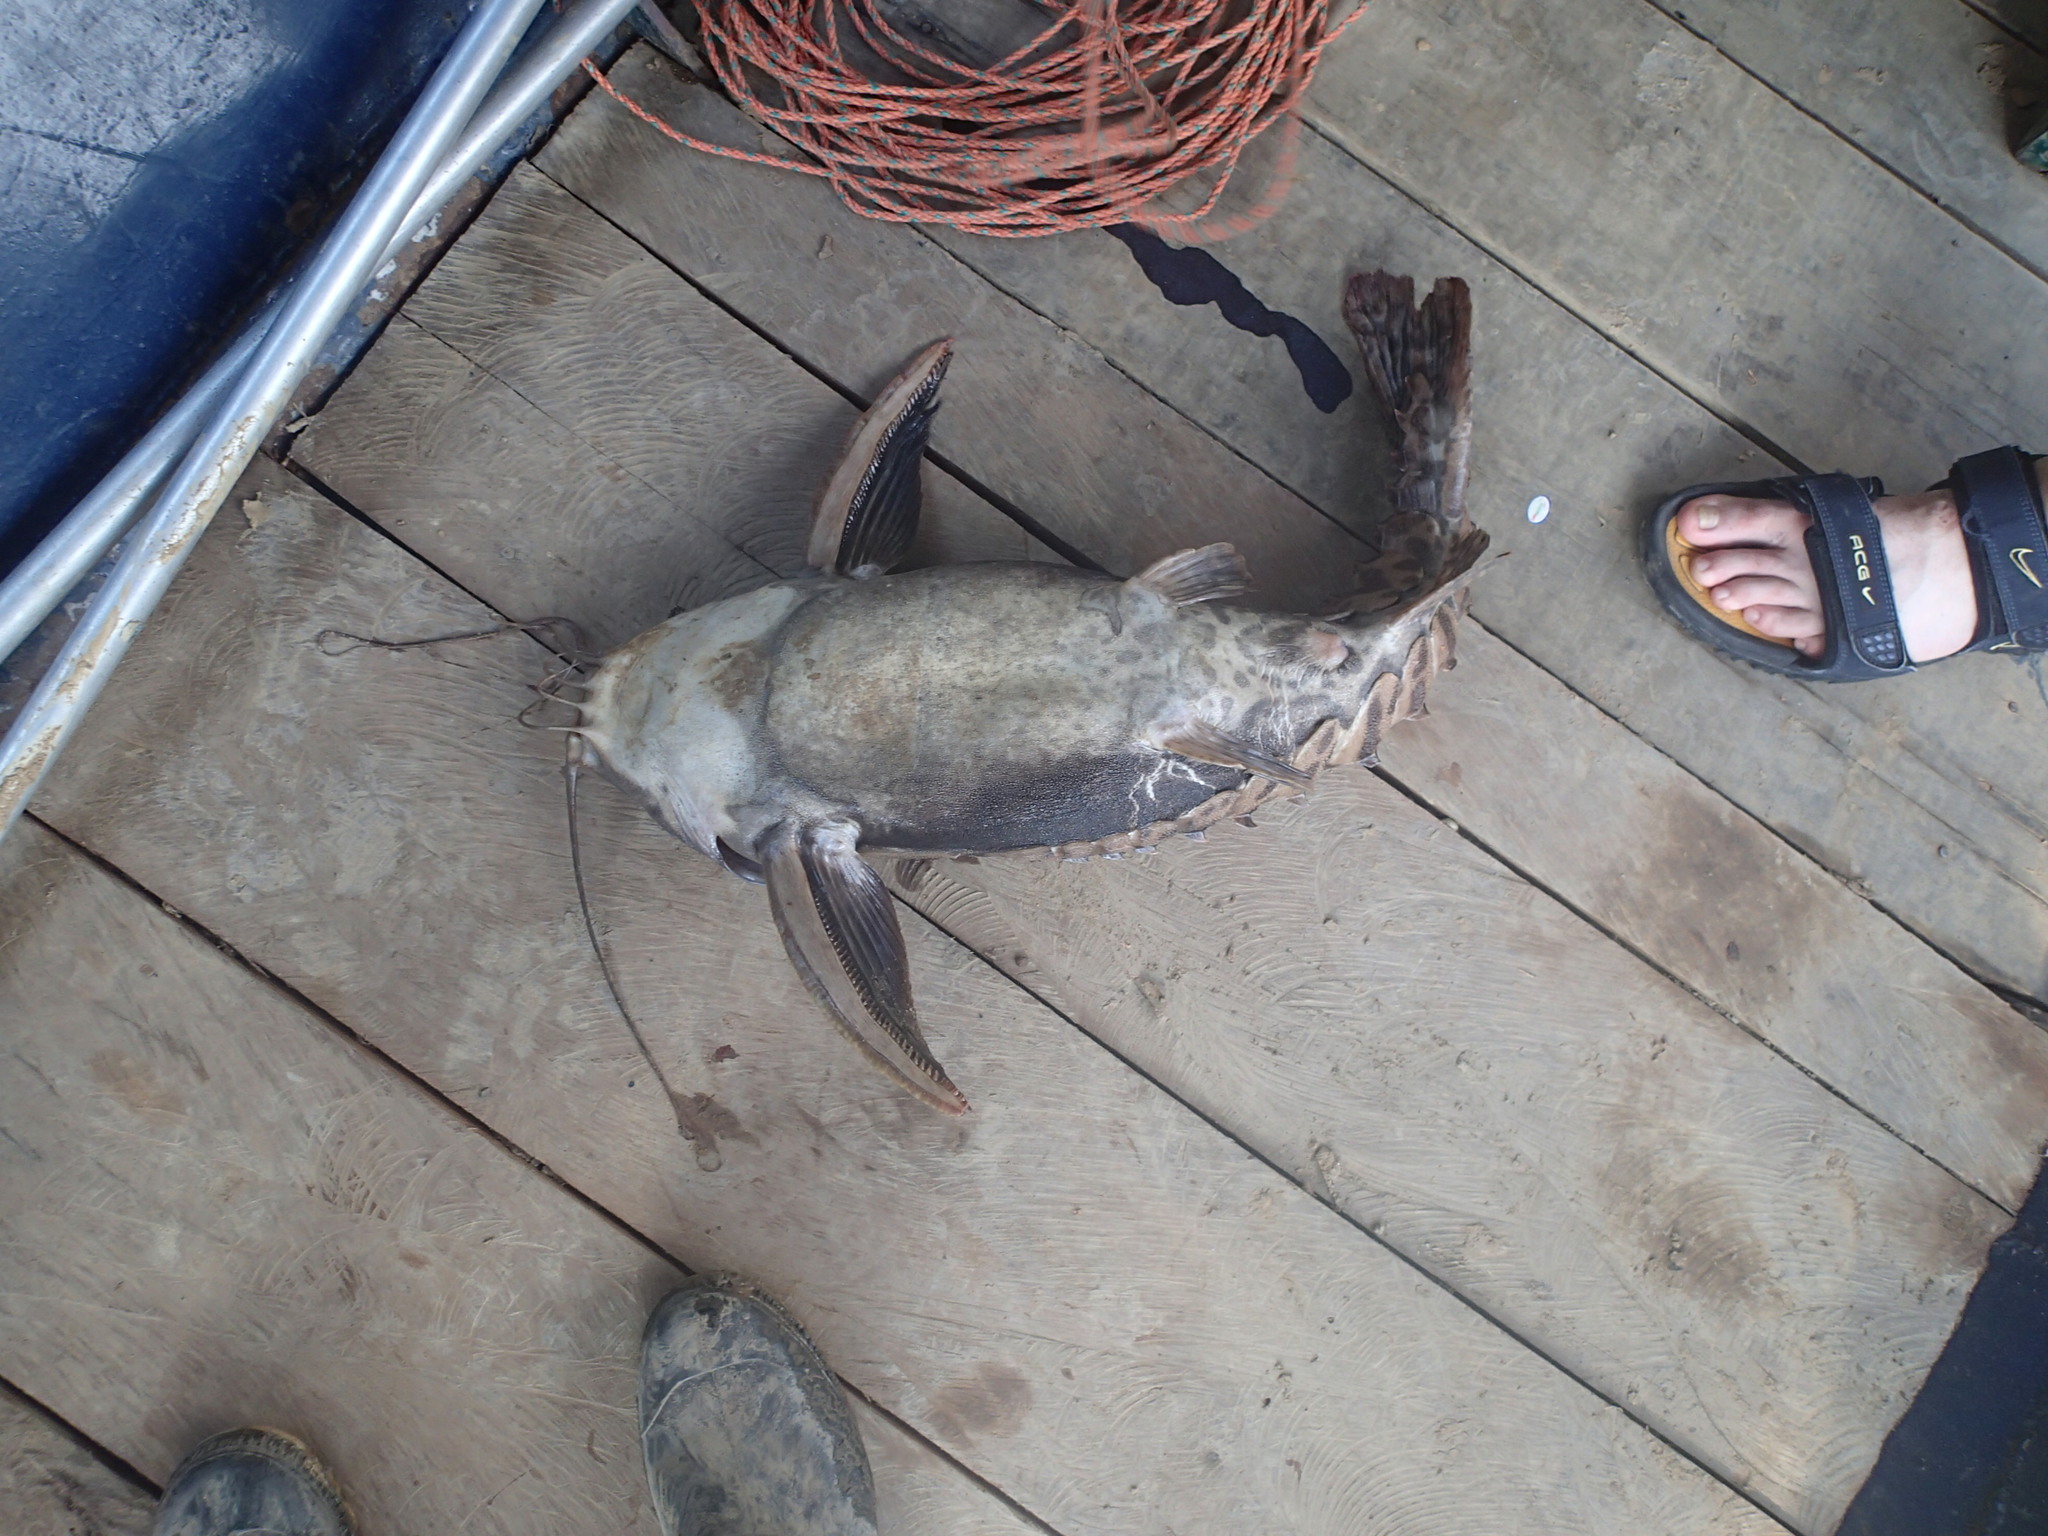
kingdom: Animalia
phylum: Chordata
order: Siluriformes
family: Doradidae
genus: Megalodoras
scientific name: Megalodoras uranoscopus
